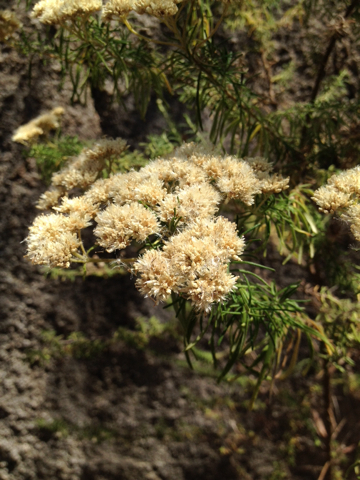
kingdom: Plantae
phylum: Tracheophyta
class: Magnoliopsida
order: Asterales
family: Asteraceae
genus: Cassinia
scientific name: Cassinia
